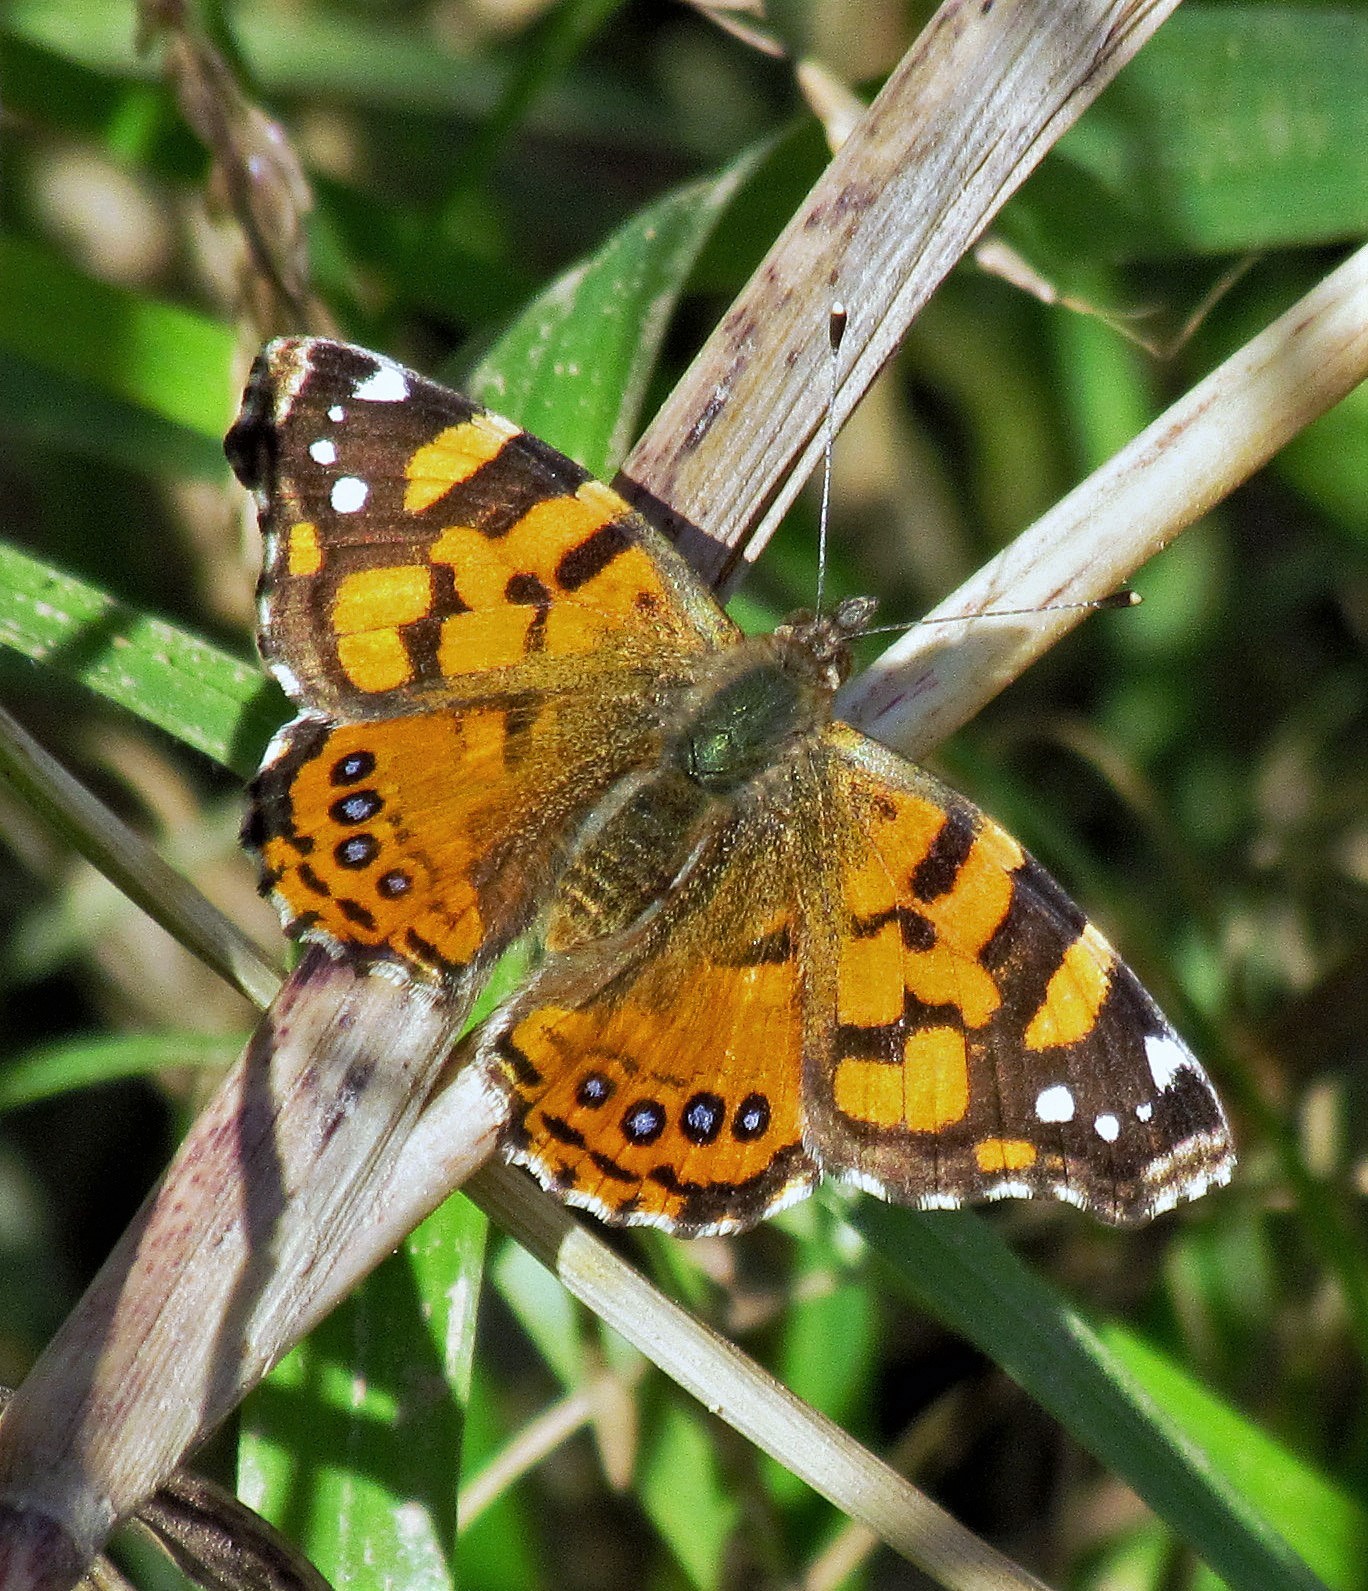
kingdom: Animalia
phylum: Arthropoda
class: Insecta
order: Lepidoptera
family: Nymphalidae
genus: Vanessa
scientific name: Vanessa carye
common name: Subtropical lady
